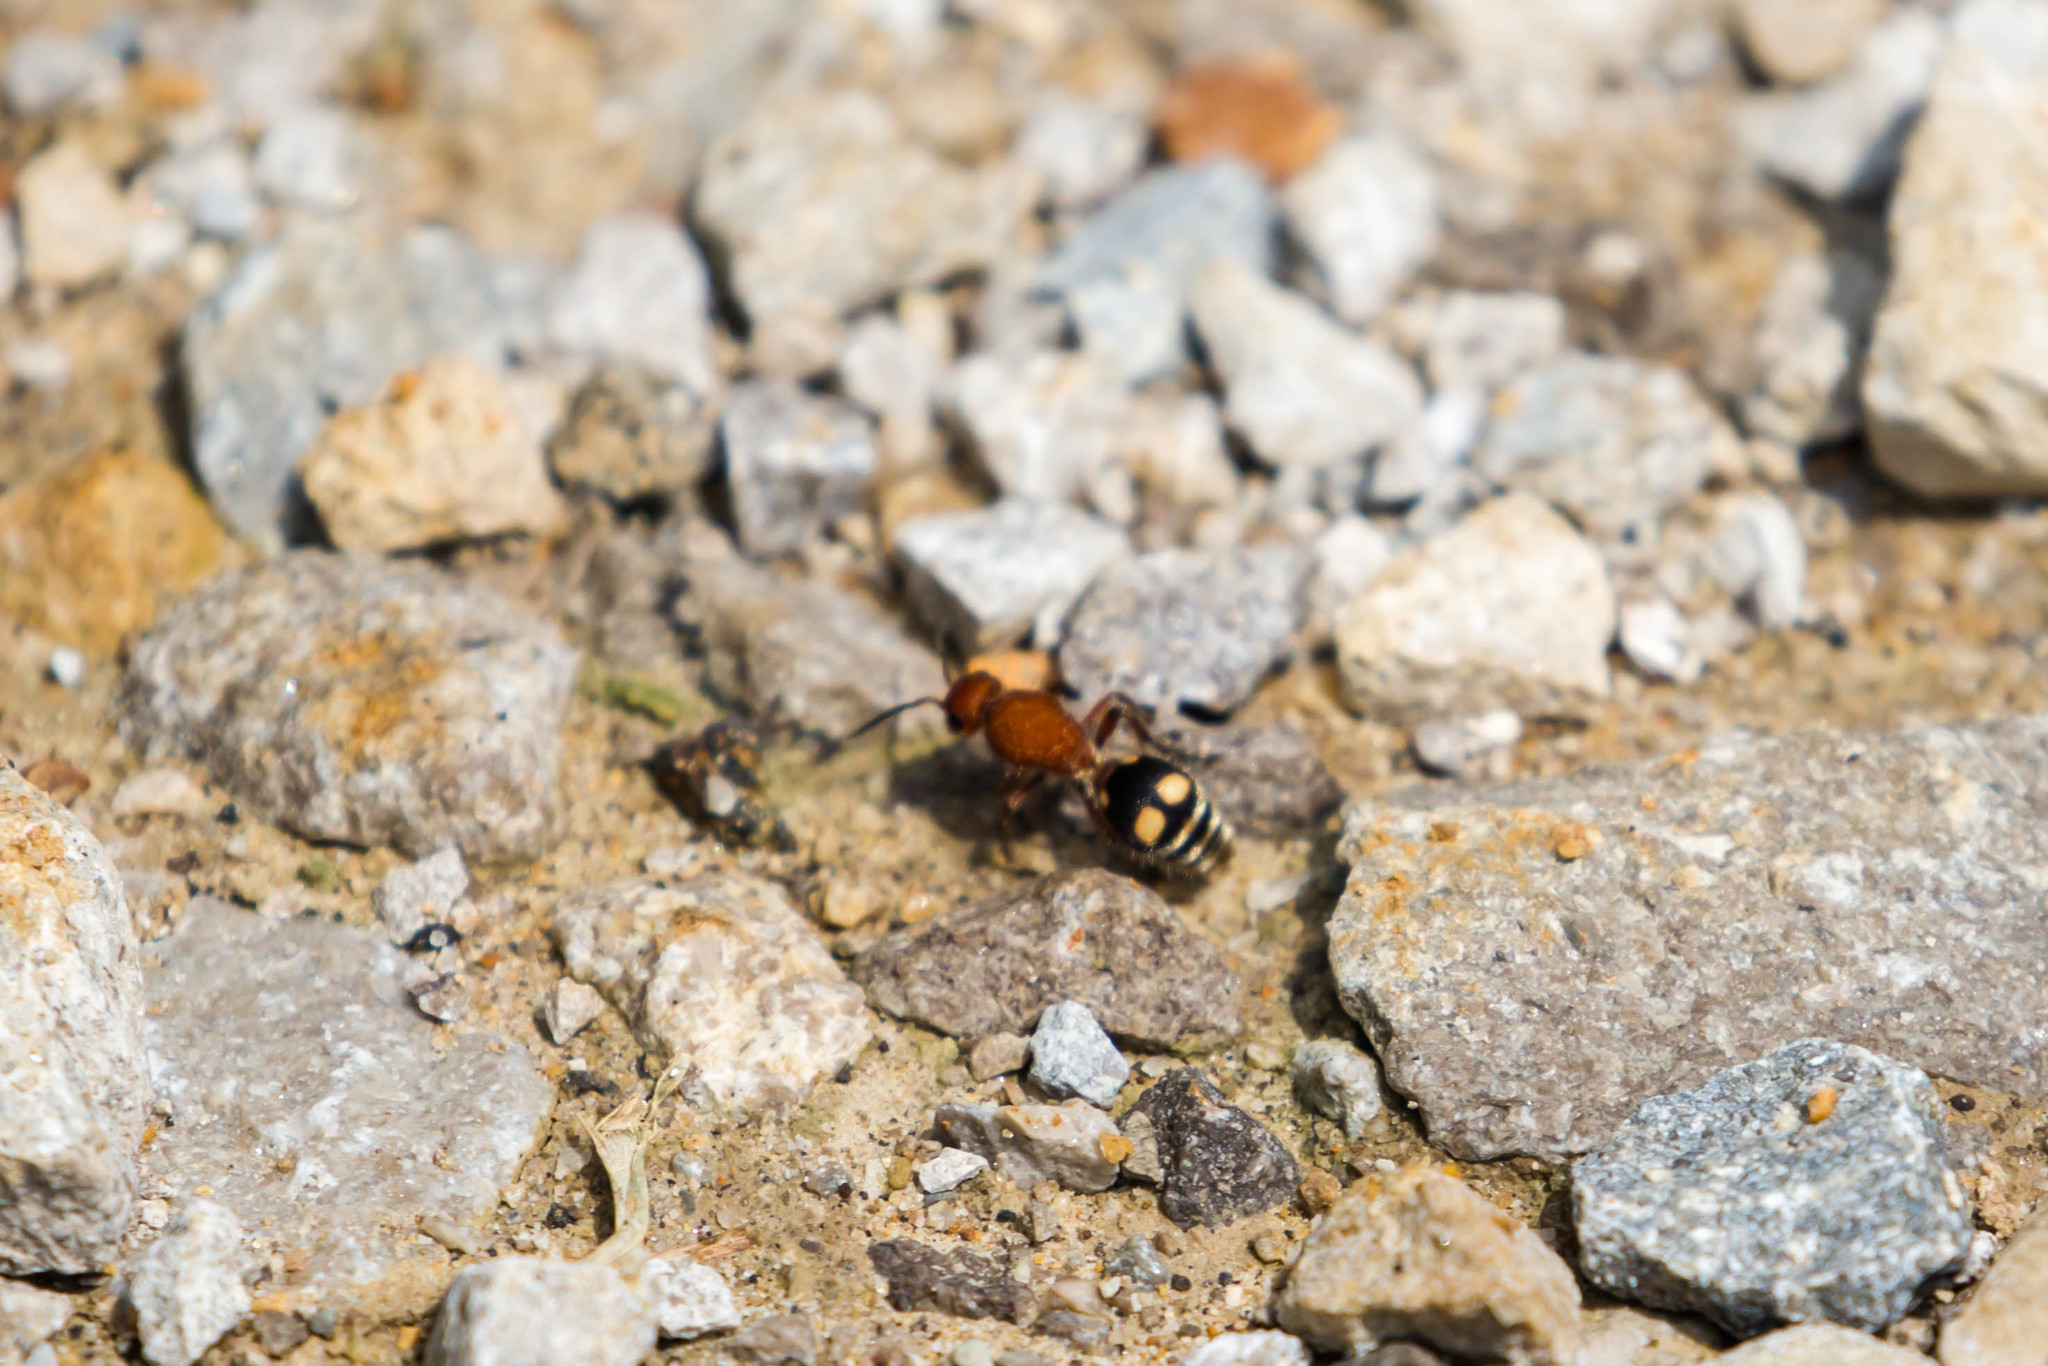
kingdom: Animalia
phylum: Arthropoda
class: Insecta
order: Hymenoptera
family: Mutillidae
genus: Dasymutilla
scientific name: Dasymutilla
